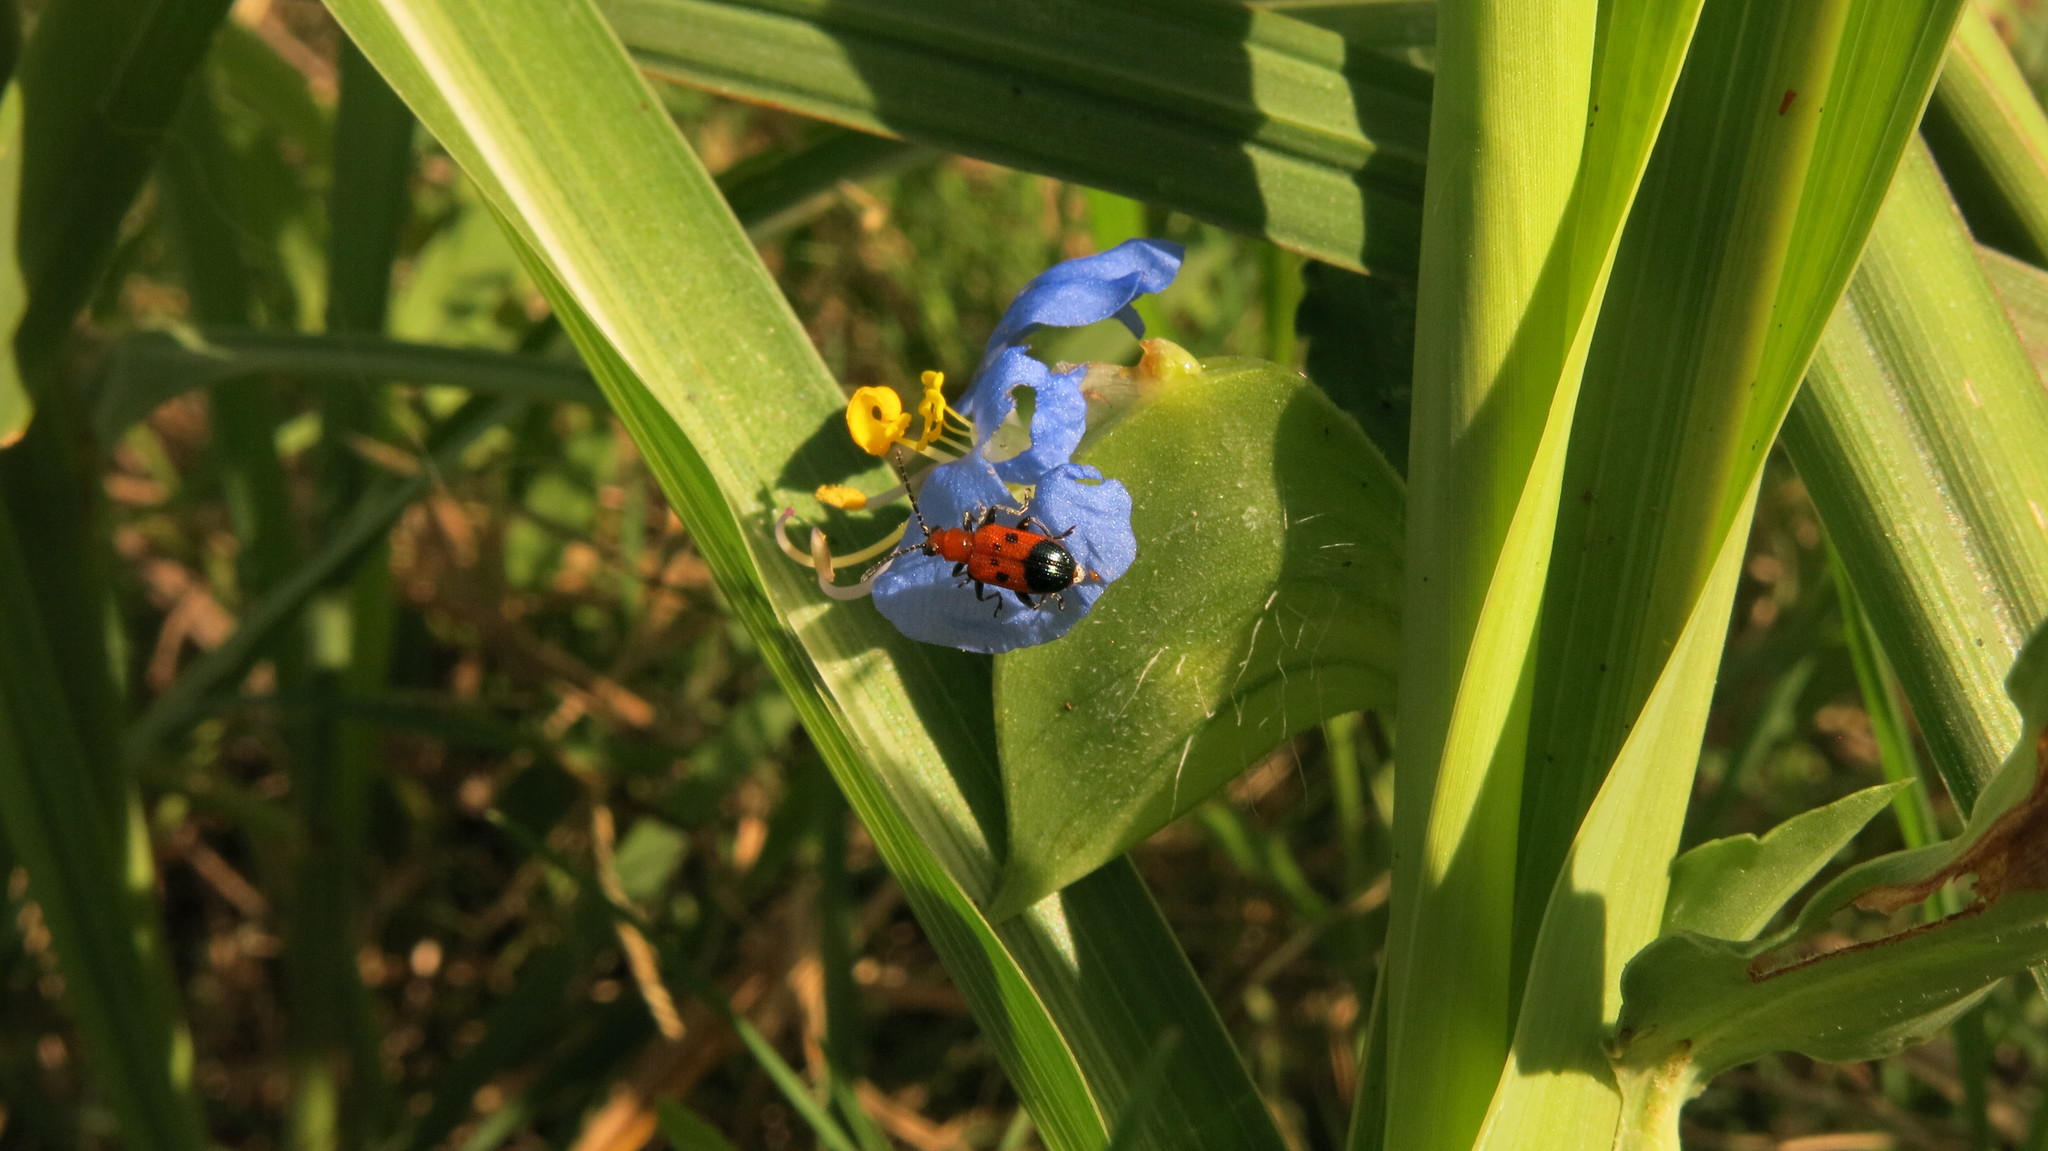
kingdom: Animalia
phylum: Arthropoda
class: Insecta
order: Coleoptera
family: Chrysomelidae
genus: Neolema
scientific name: Neolema dorsalis
